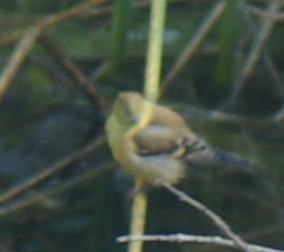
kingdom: Animalia
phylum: Chordata
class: Aves
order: Passeriformes
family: Fringillidae
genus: Spinus
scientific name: Spinus tristis
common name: American goldfinch
